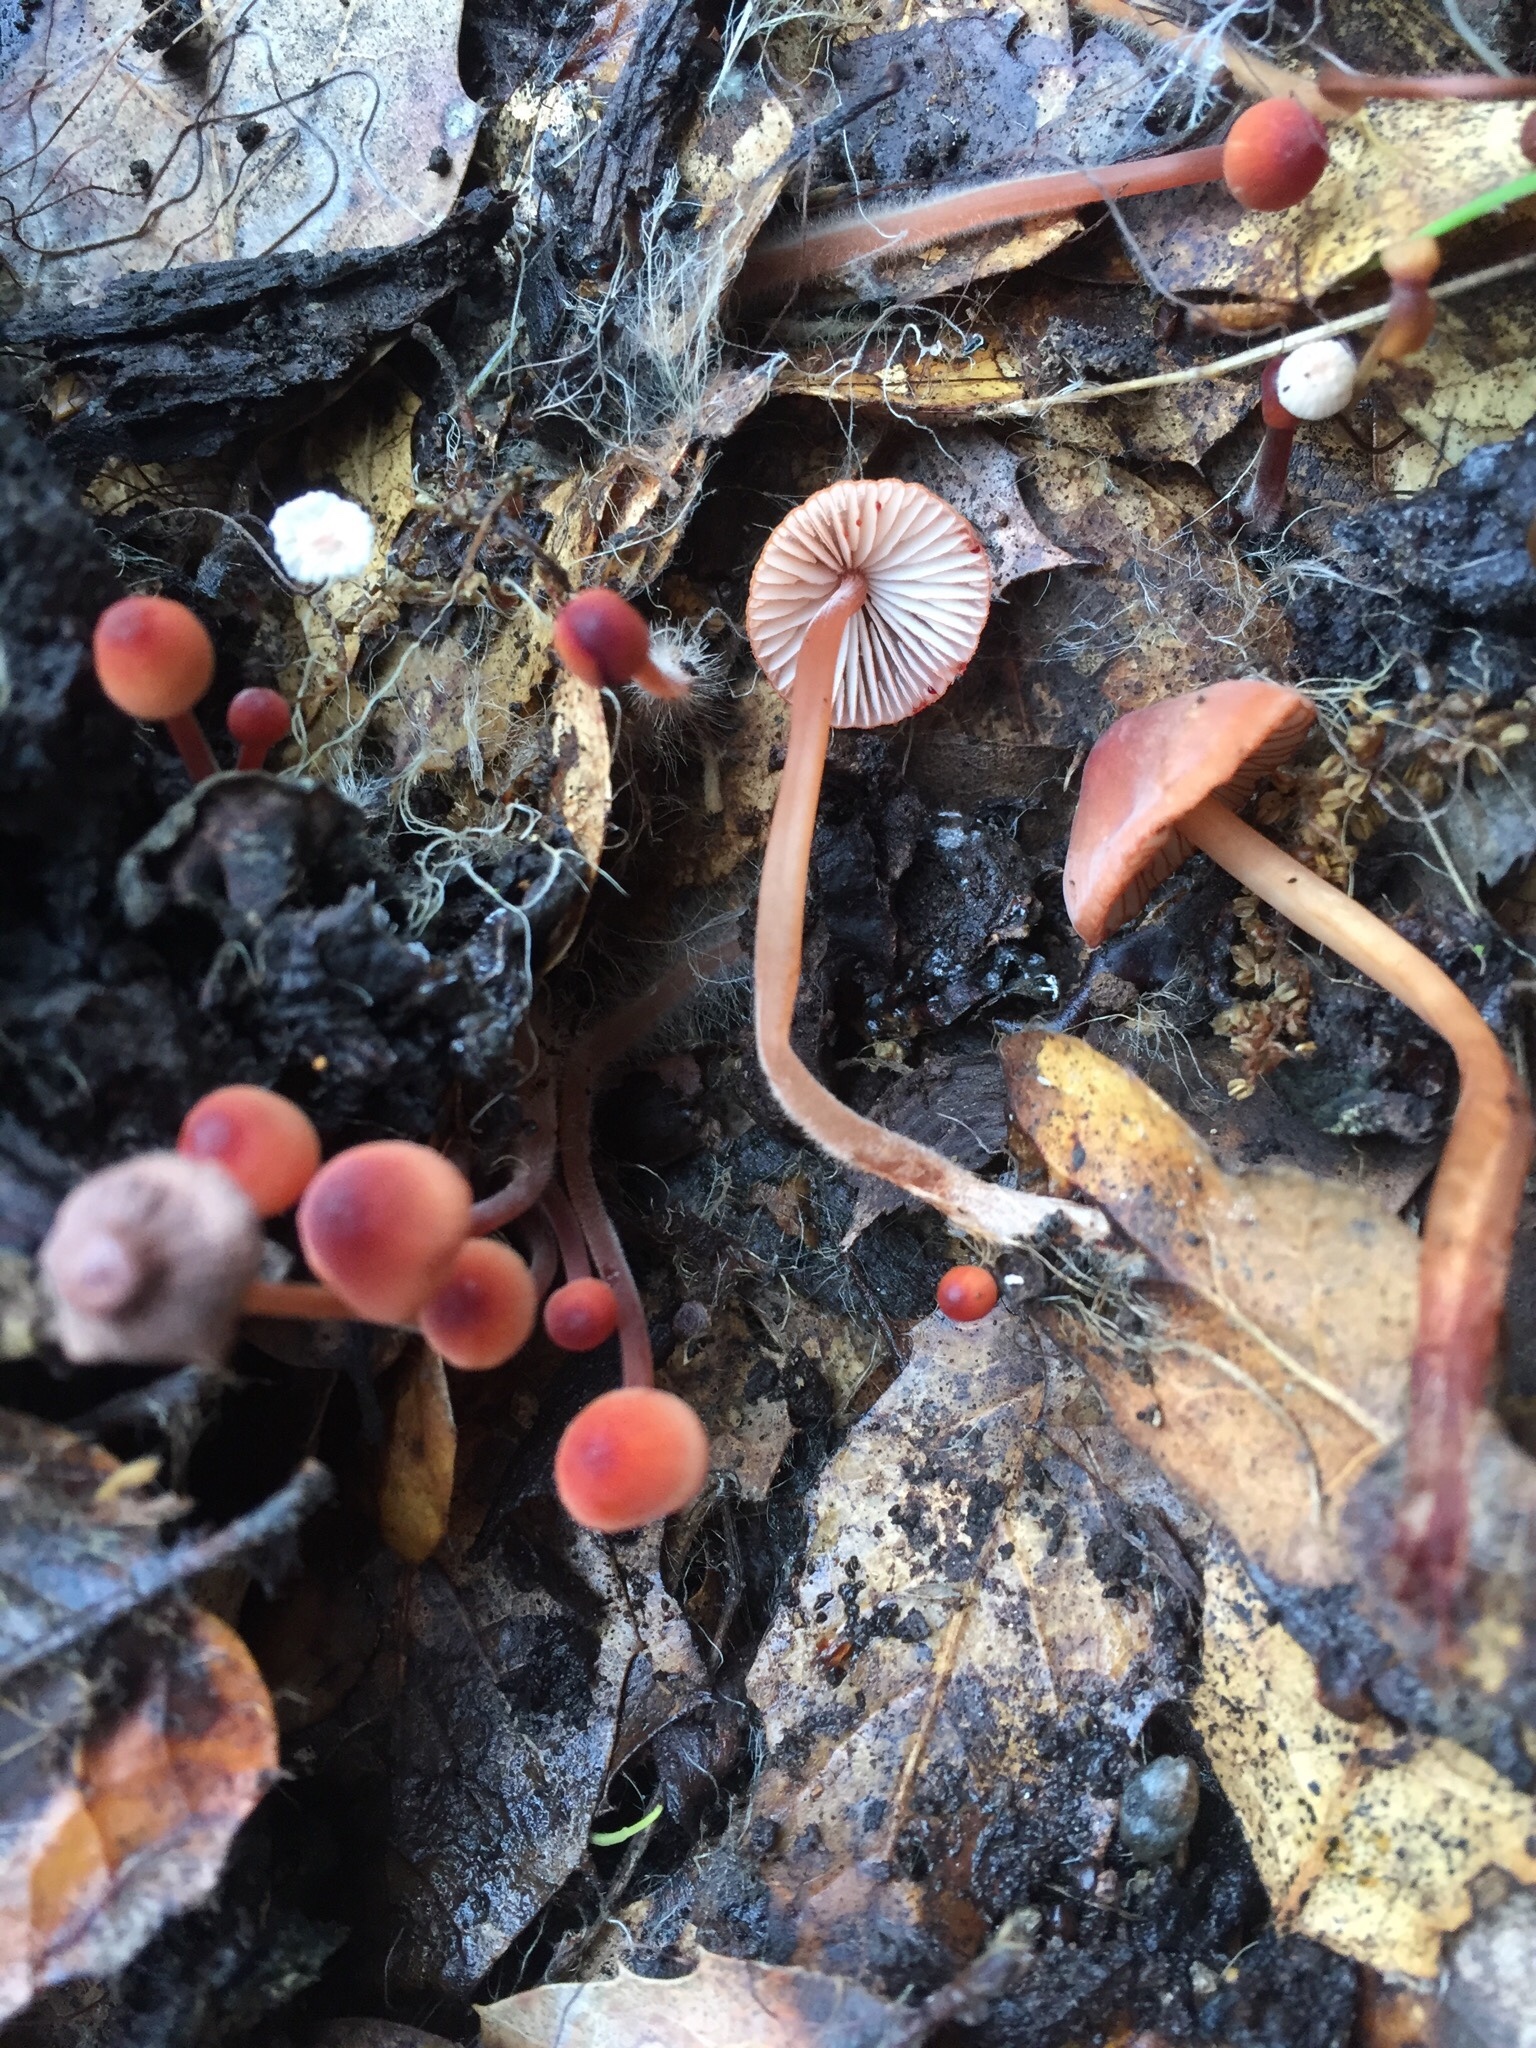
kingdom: Fungi
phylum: Basidiomycota
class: Agaricomycetes
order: Agaricales
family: Mycenaceae
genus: Mycena
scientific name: Mycena
